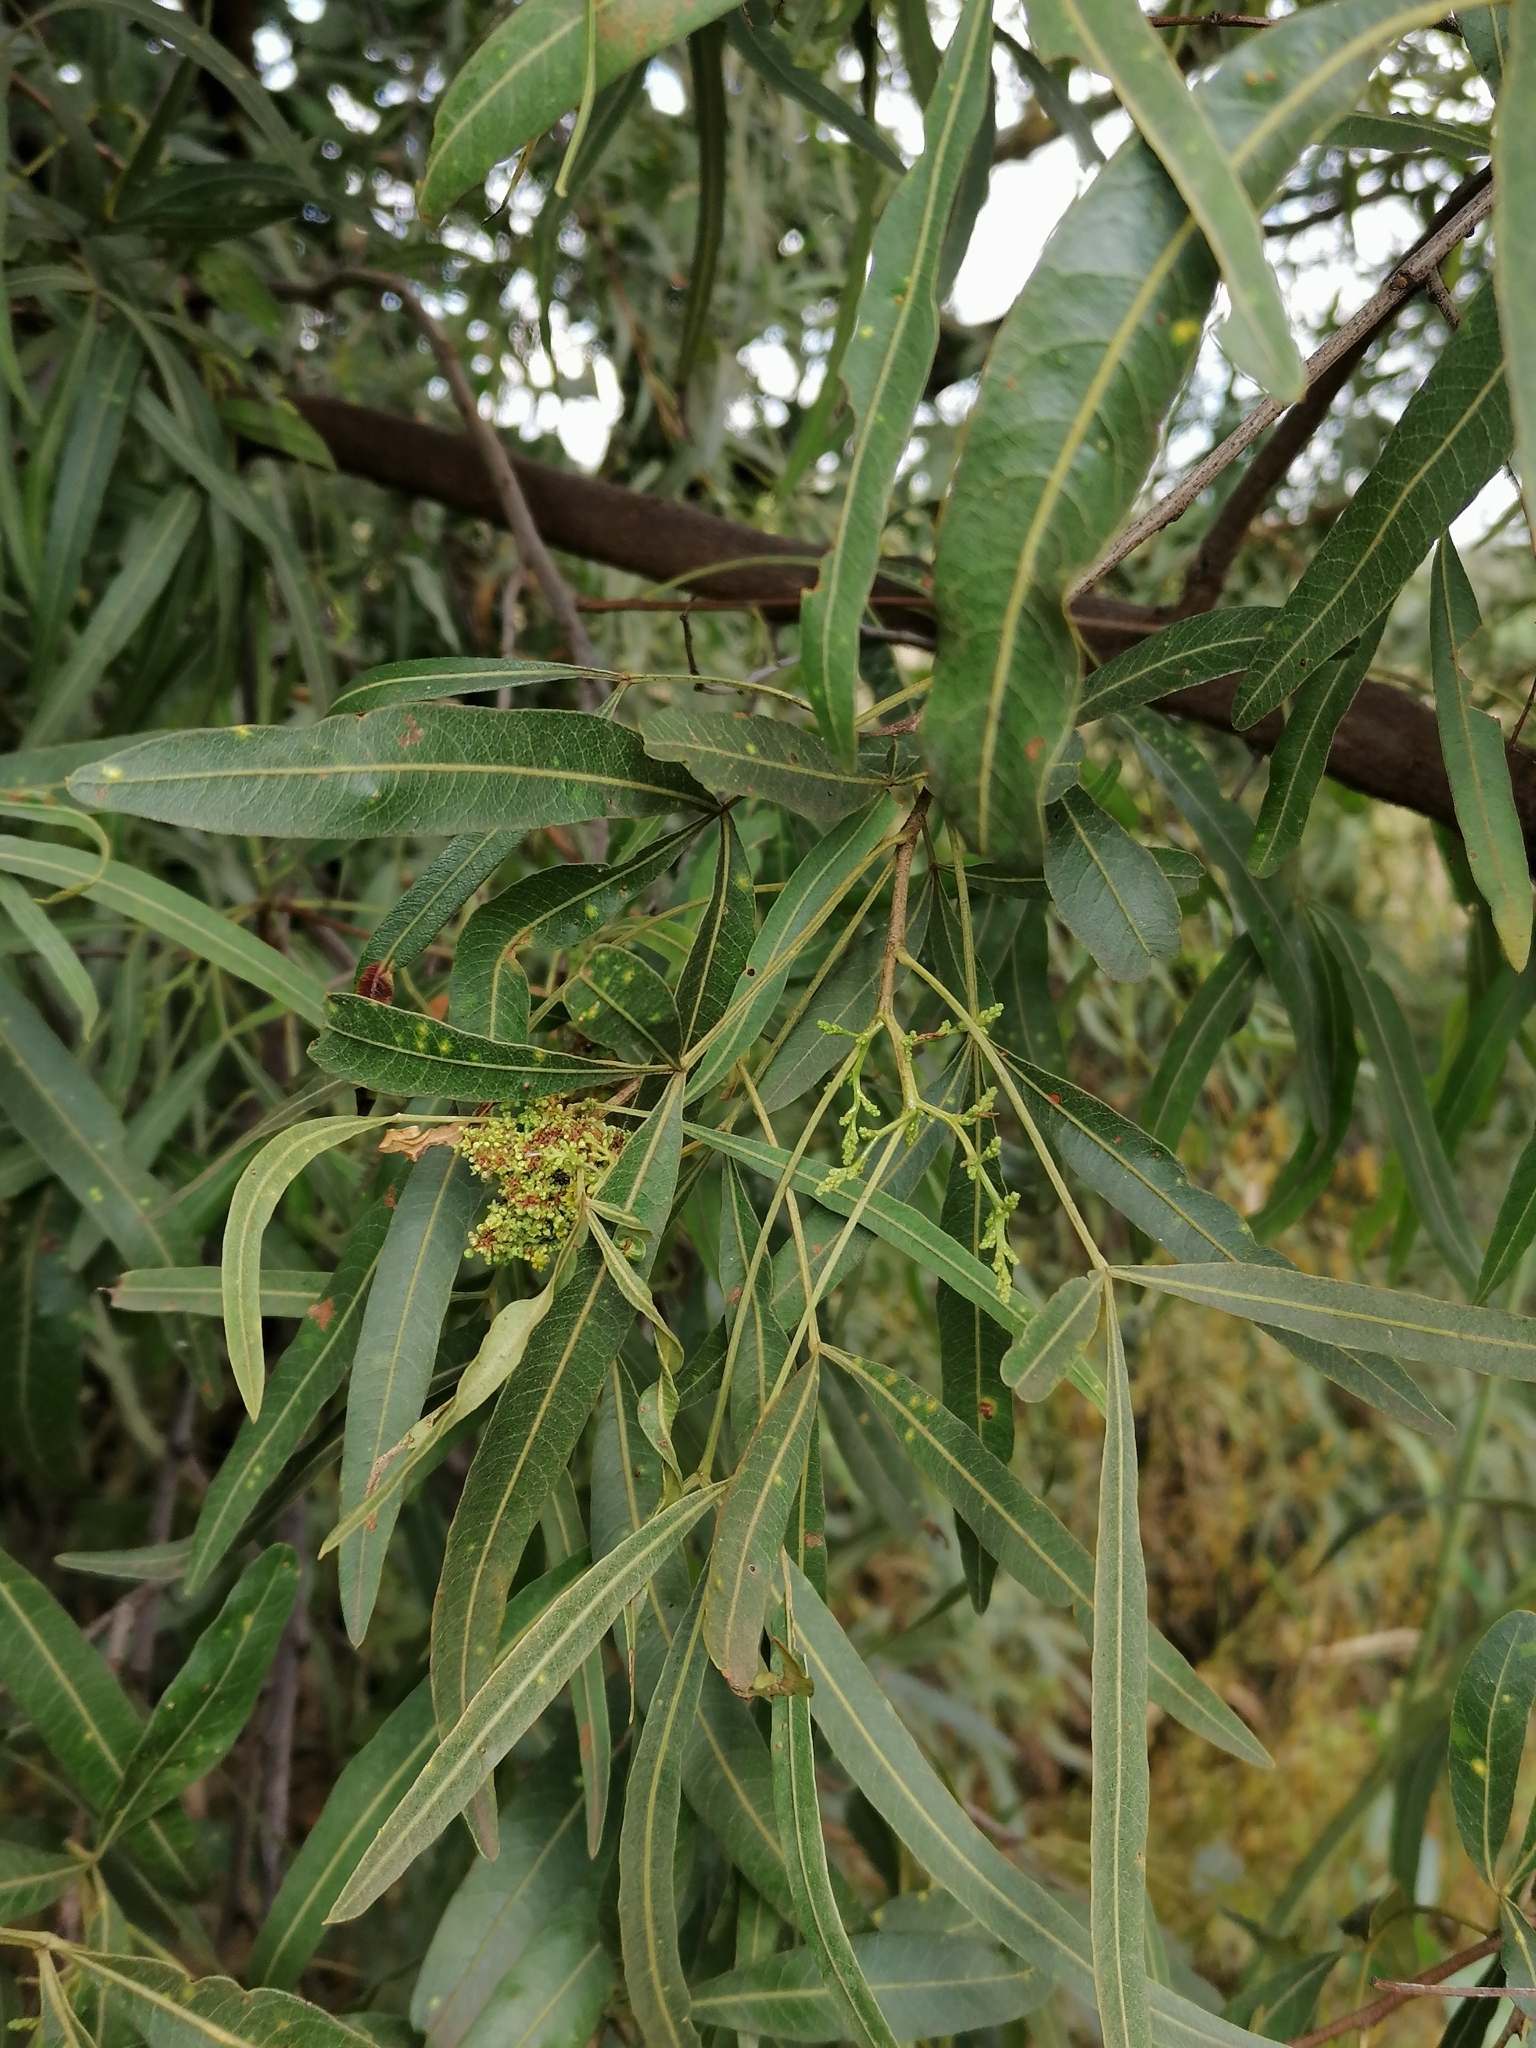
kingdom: Plantae
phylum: Tracheophyta
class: Magnoliopsida
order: Sapindales
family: Anacardiaceae
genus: Searsia
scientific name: Searsia lancea
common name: Cashew
